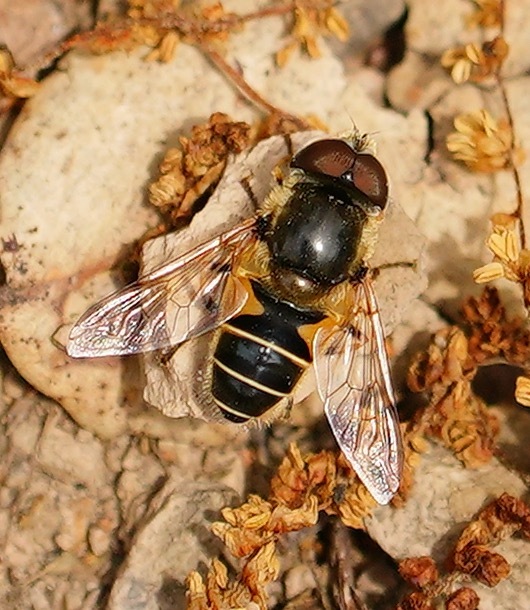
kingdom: Animalia
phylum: Arthropoda
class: Insecta
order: Diptera
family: Syrphidae
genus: Eristalis
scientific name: Eristalis hirta
